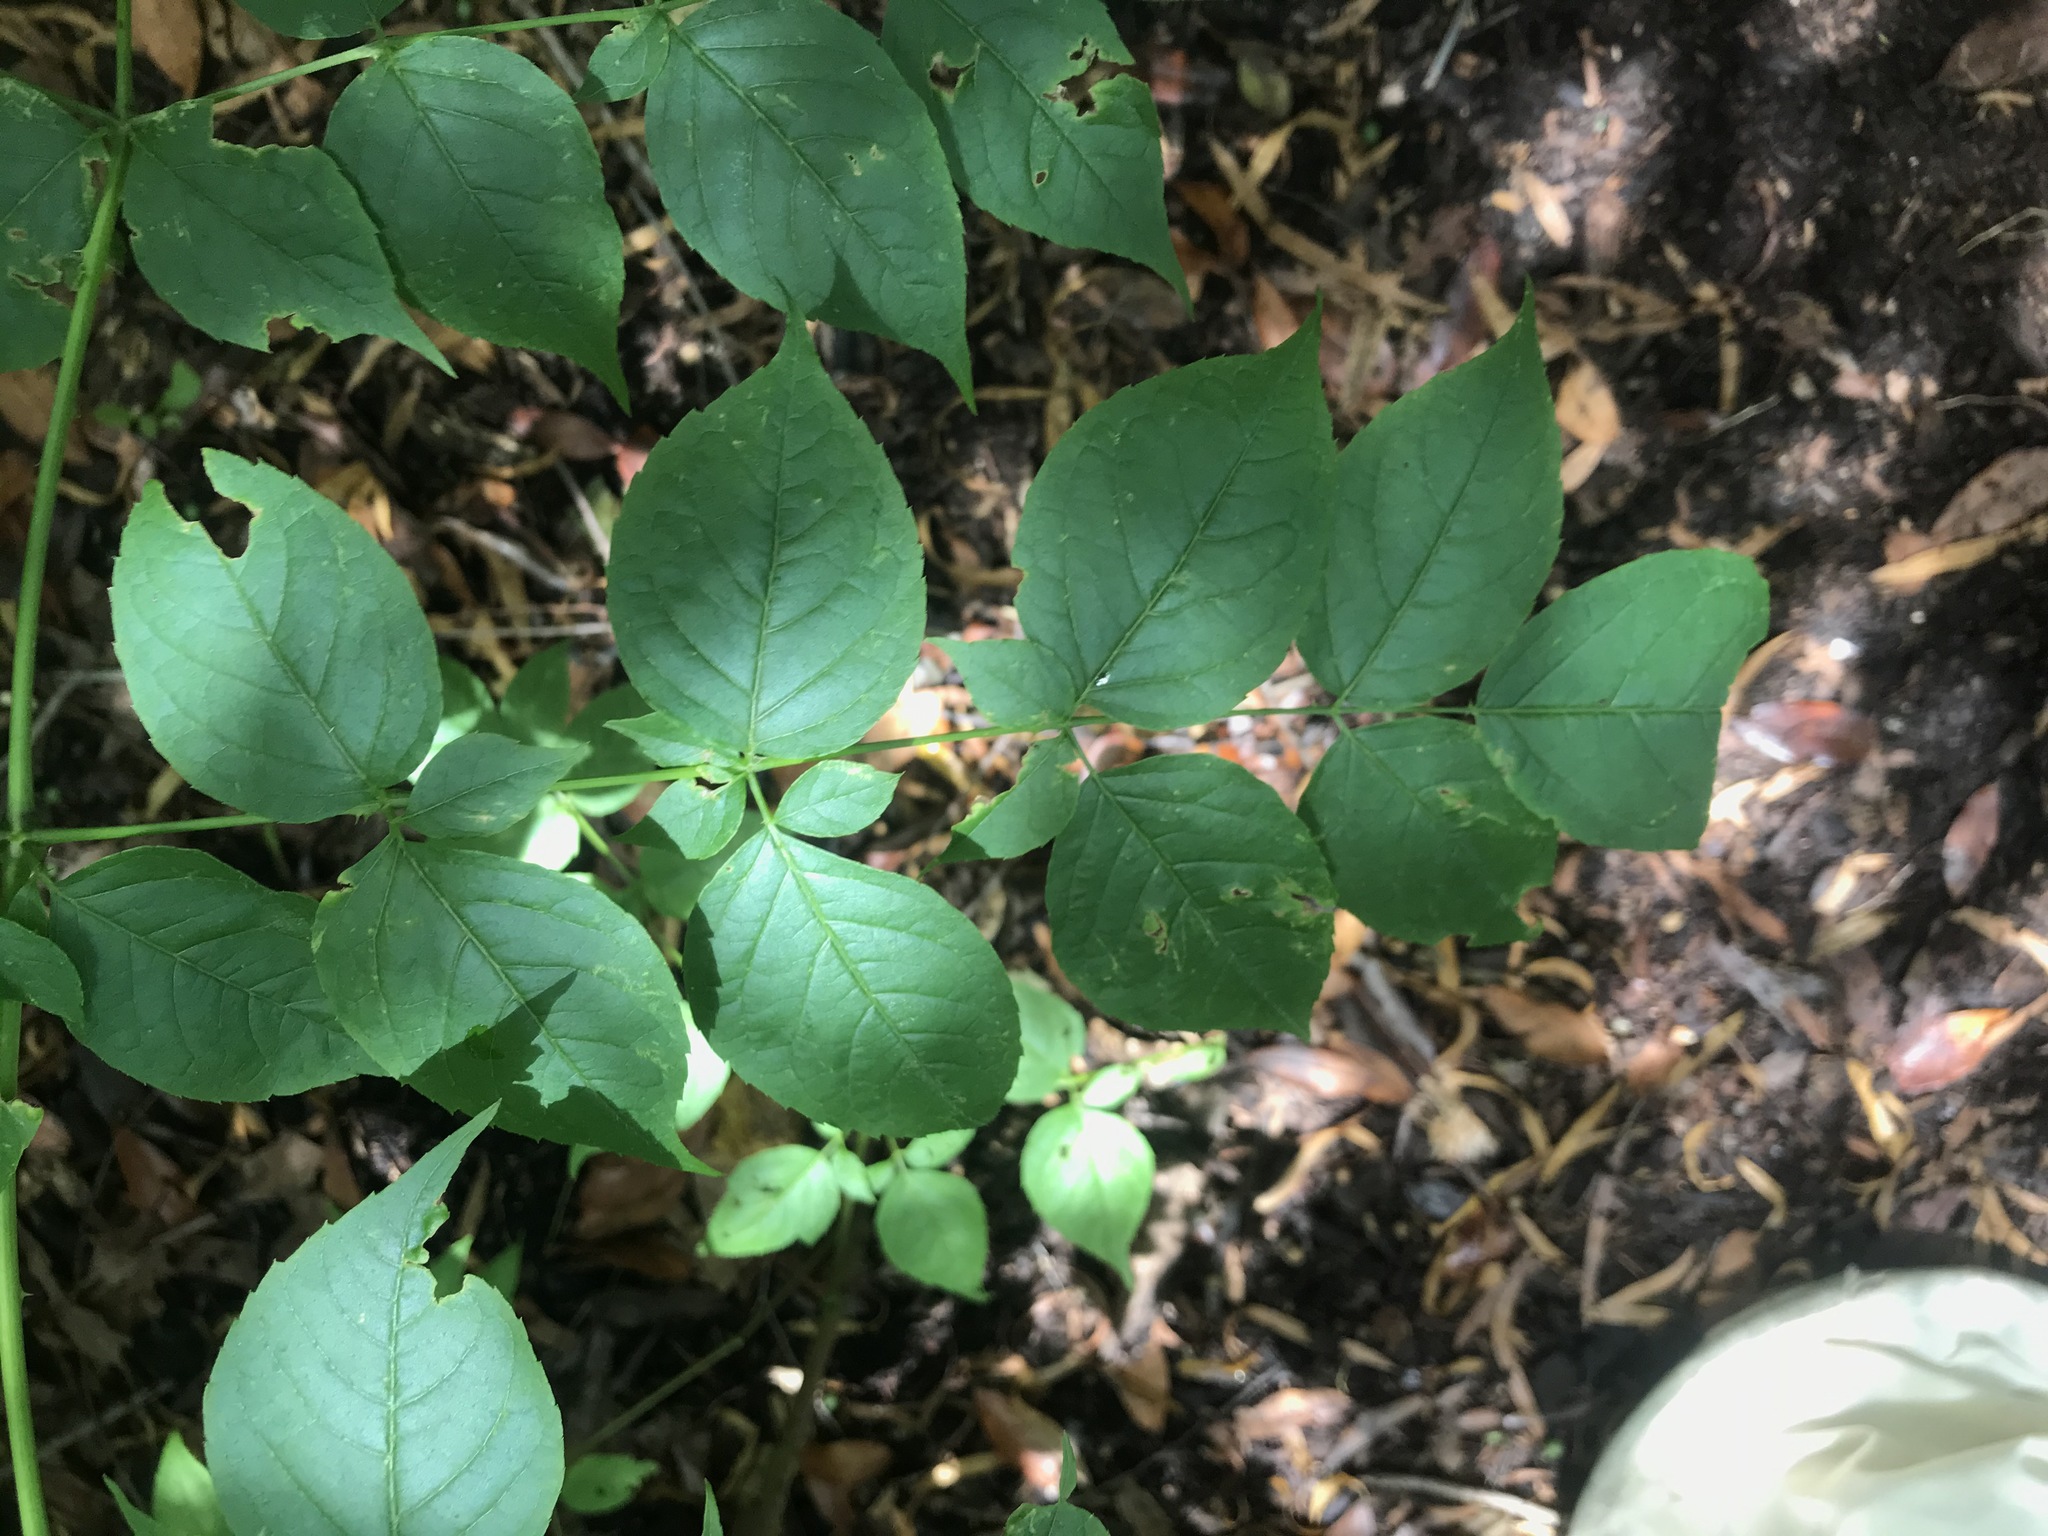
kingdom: Plantae
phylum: Tracheophyta
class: Magnoliopsida
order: Apiales
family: Araliaceae
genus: Aralia
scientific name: Aralia spinosa
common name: Hercules'-club
